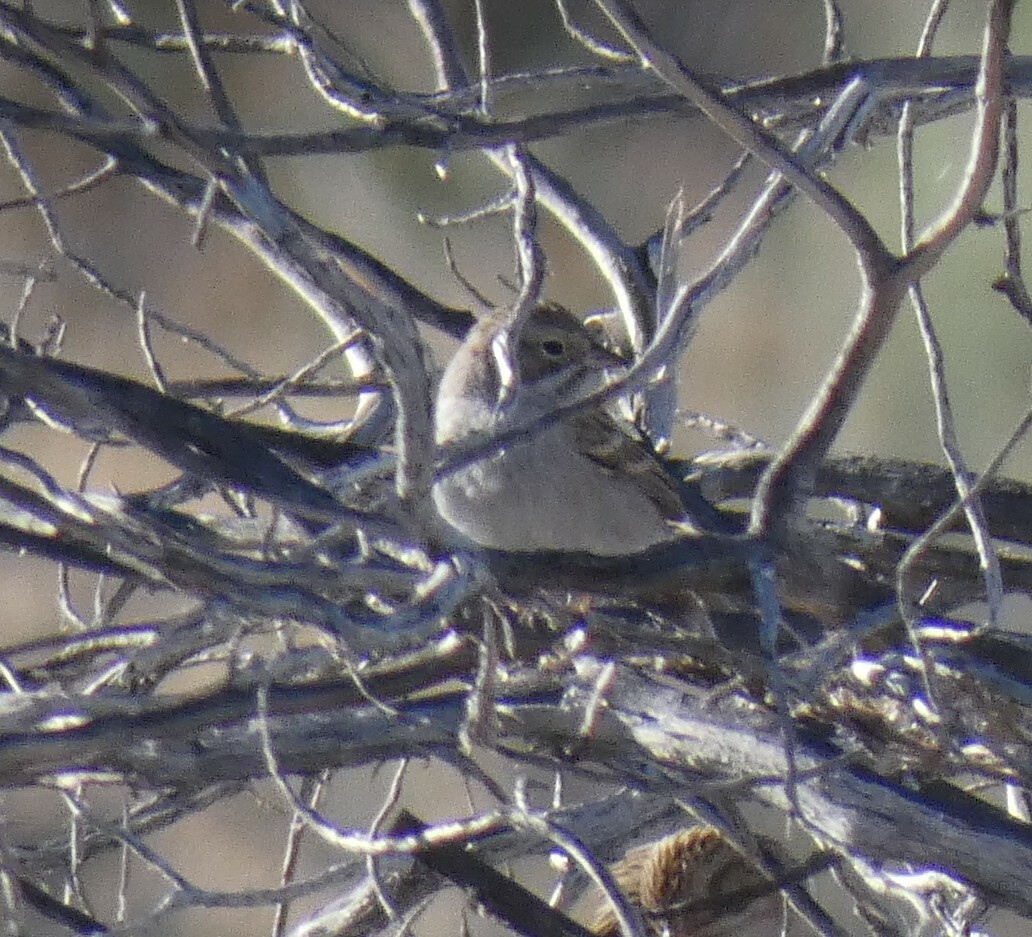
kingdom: Animalia
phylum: Chordata
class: Aves
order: Passeriformes
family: Passerellidae
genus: Spizella
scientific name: Spizella breweri
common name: Brewer's sparrow
